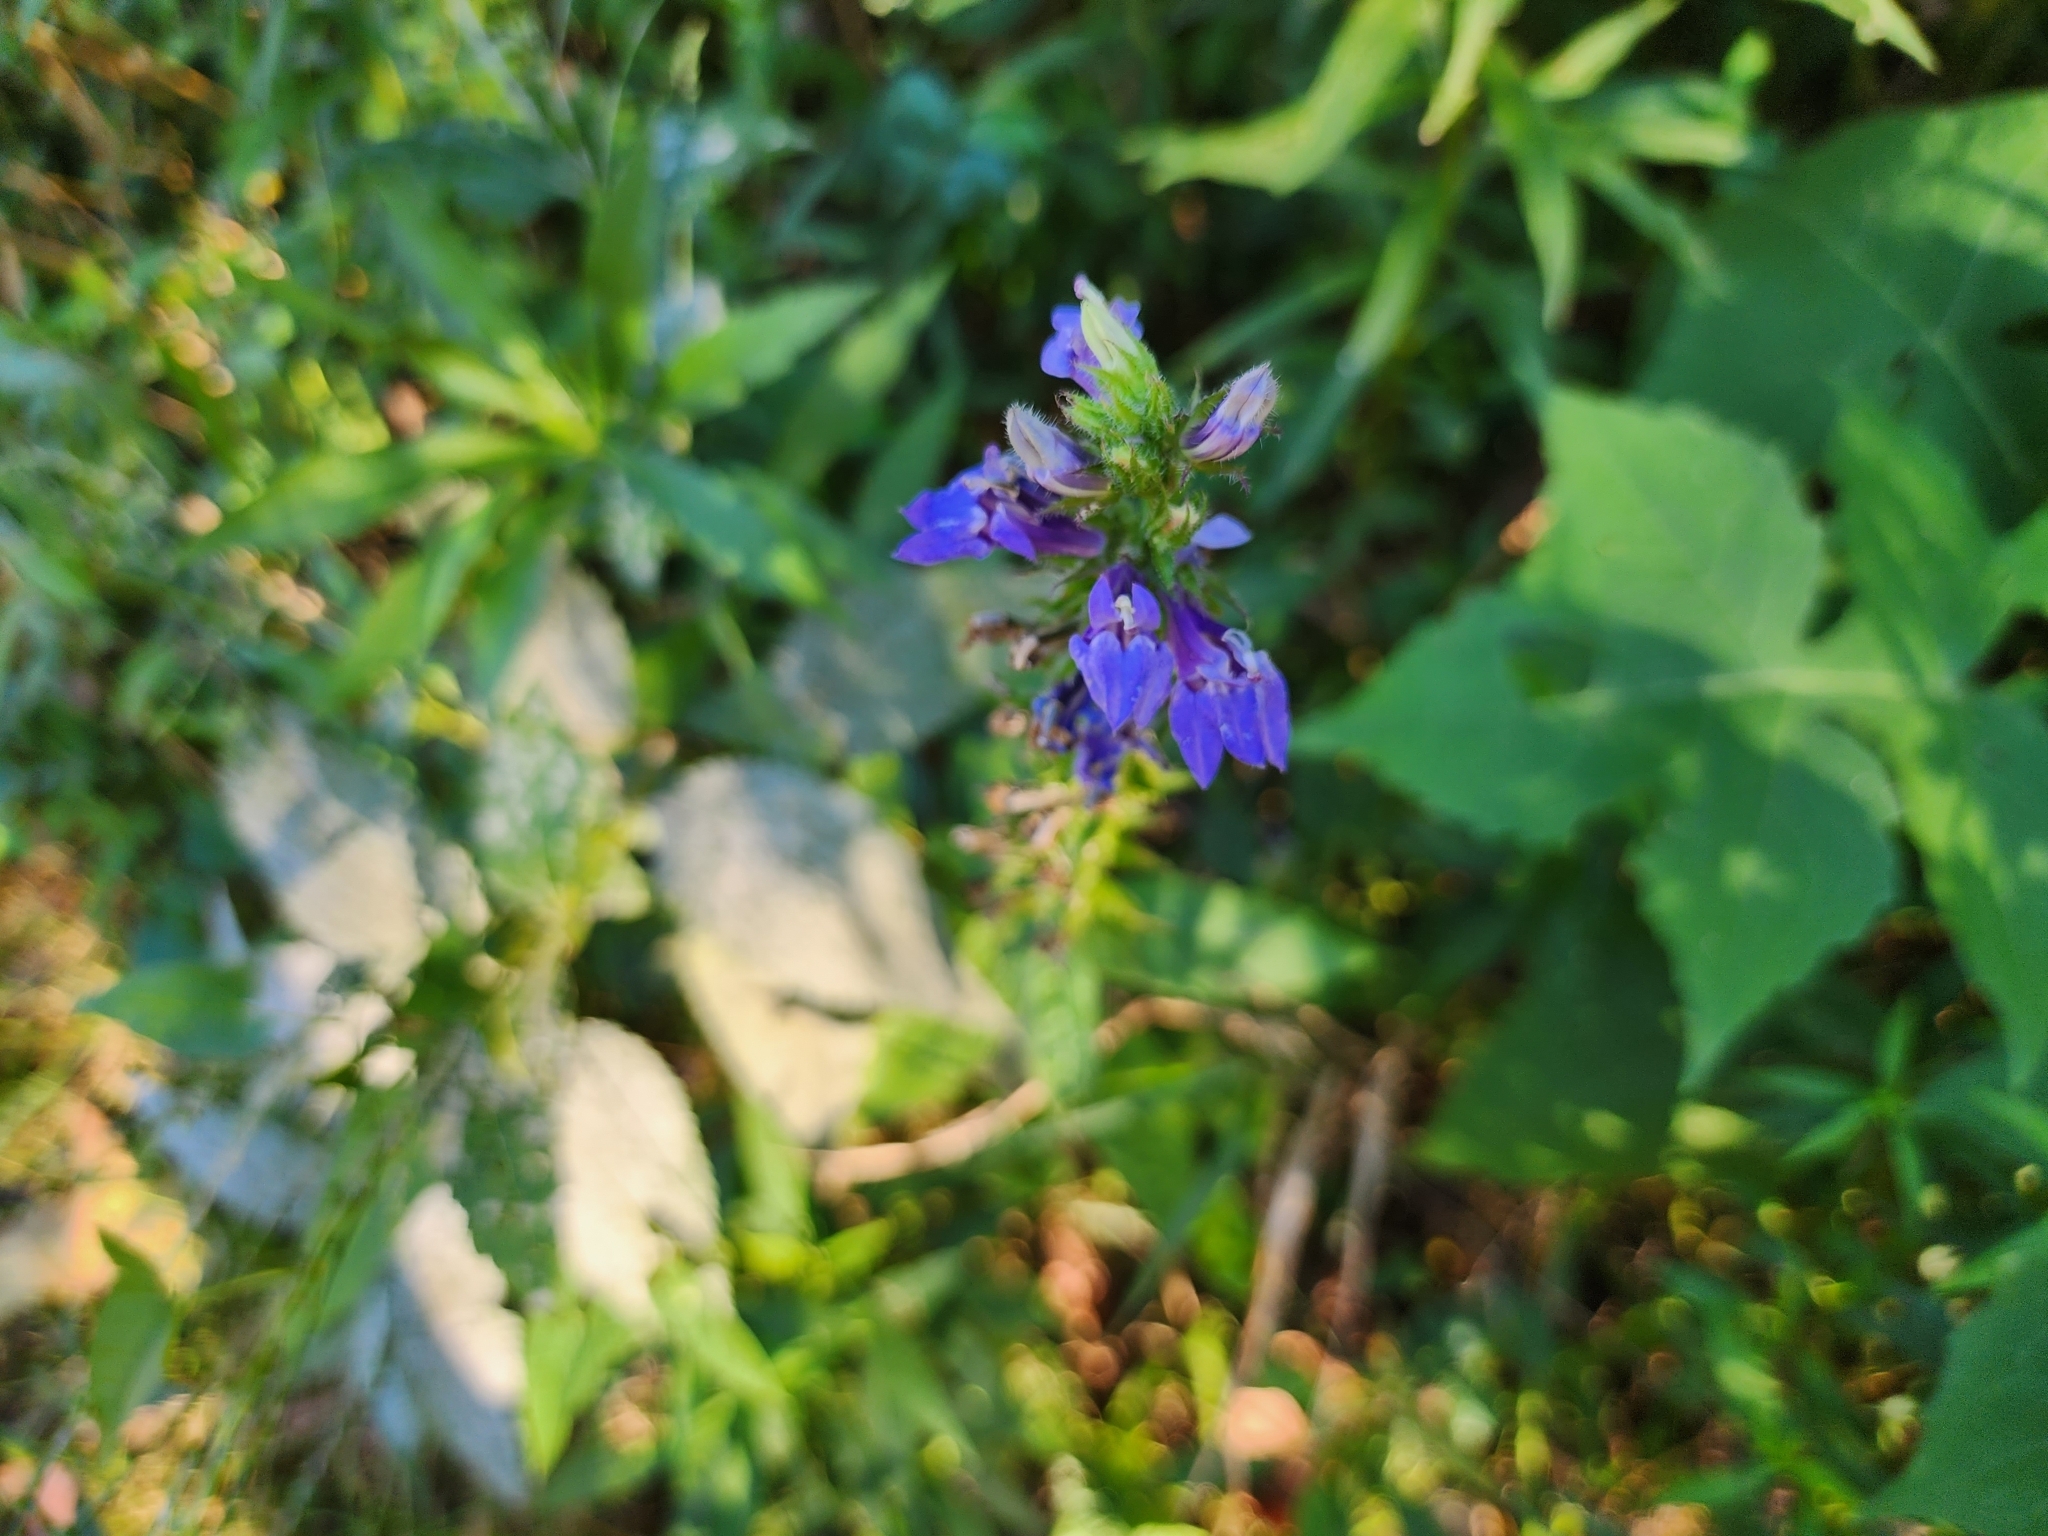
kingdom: Plantae
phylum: Tracheophyta
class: Magnoliopsida
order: Asterales
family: Campanulaceae
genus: Lobelia
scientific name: Lobelia siphilitica
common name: Great lobelia
